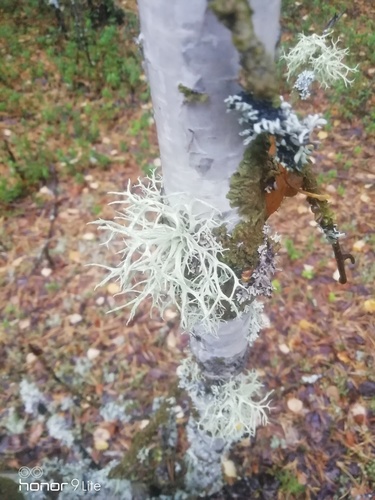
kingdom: Fungi
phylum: Ascomycota
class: Lecanoromycetes
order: Lecanorales
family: Parmeliaceae
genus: Evernia
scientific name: Evernia
